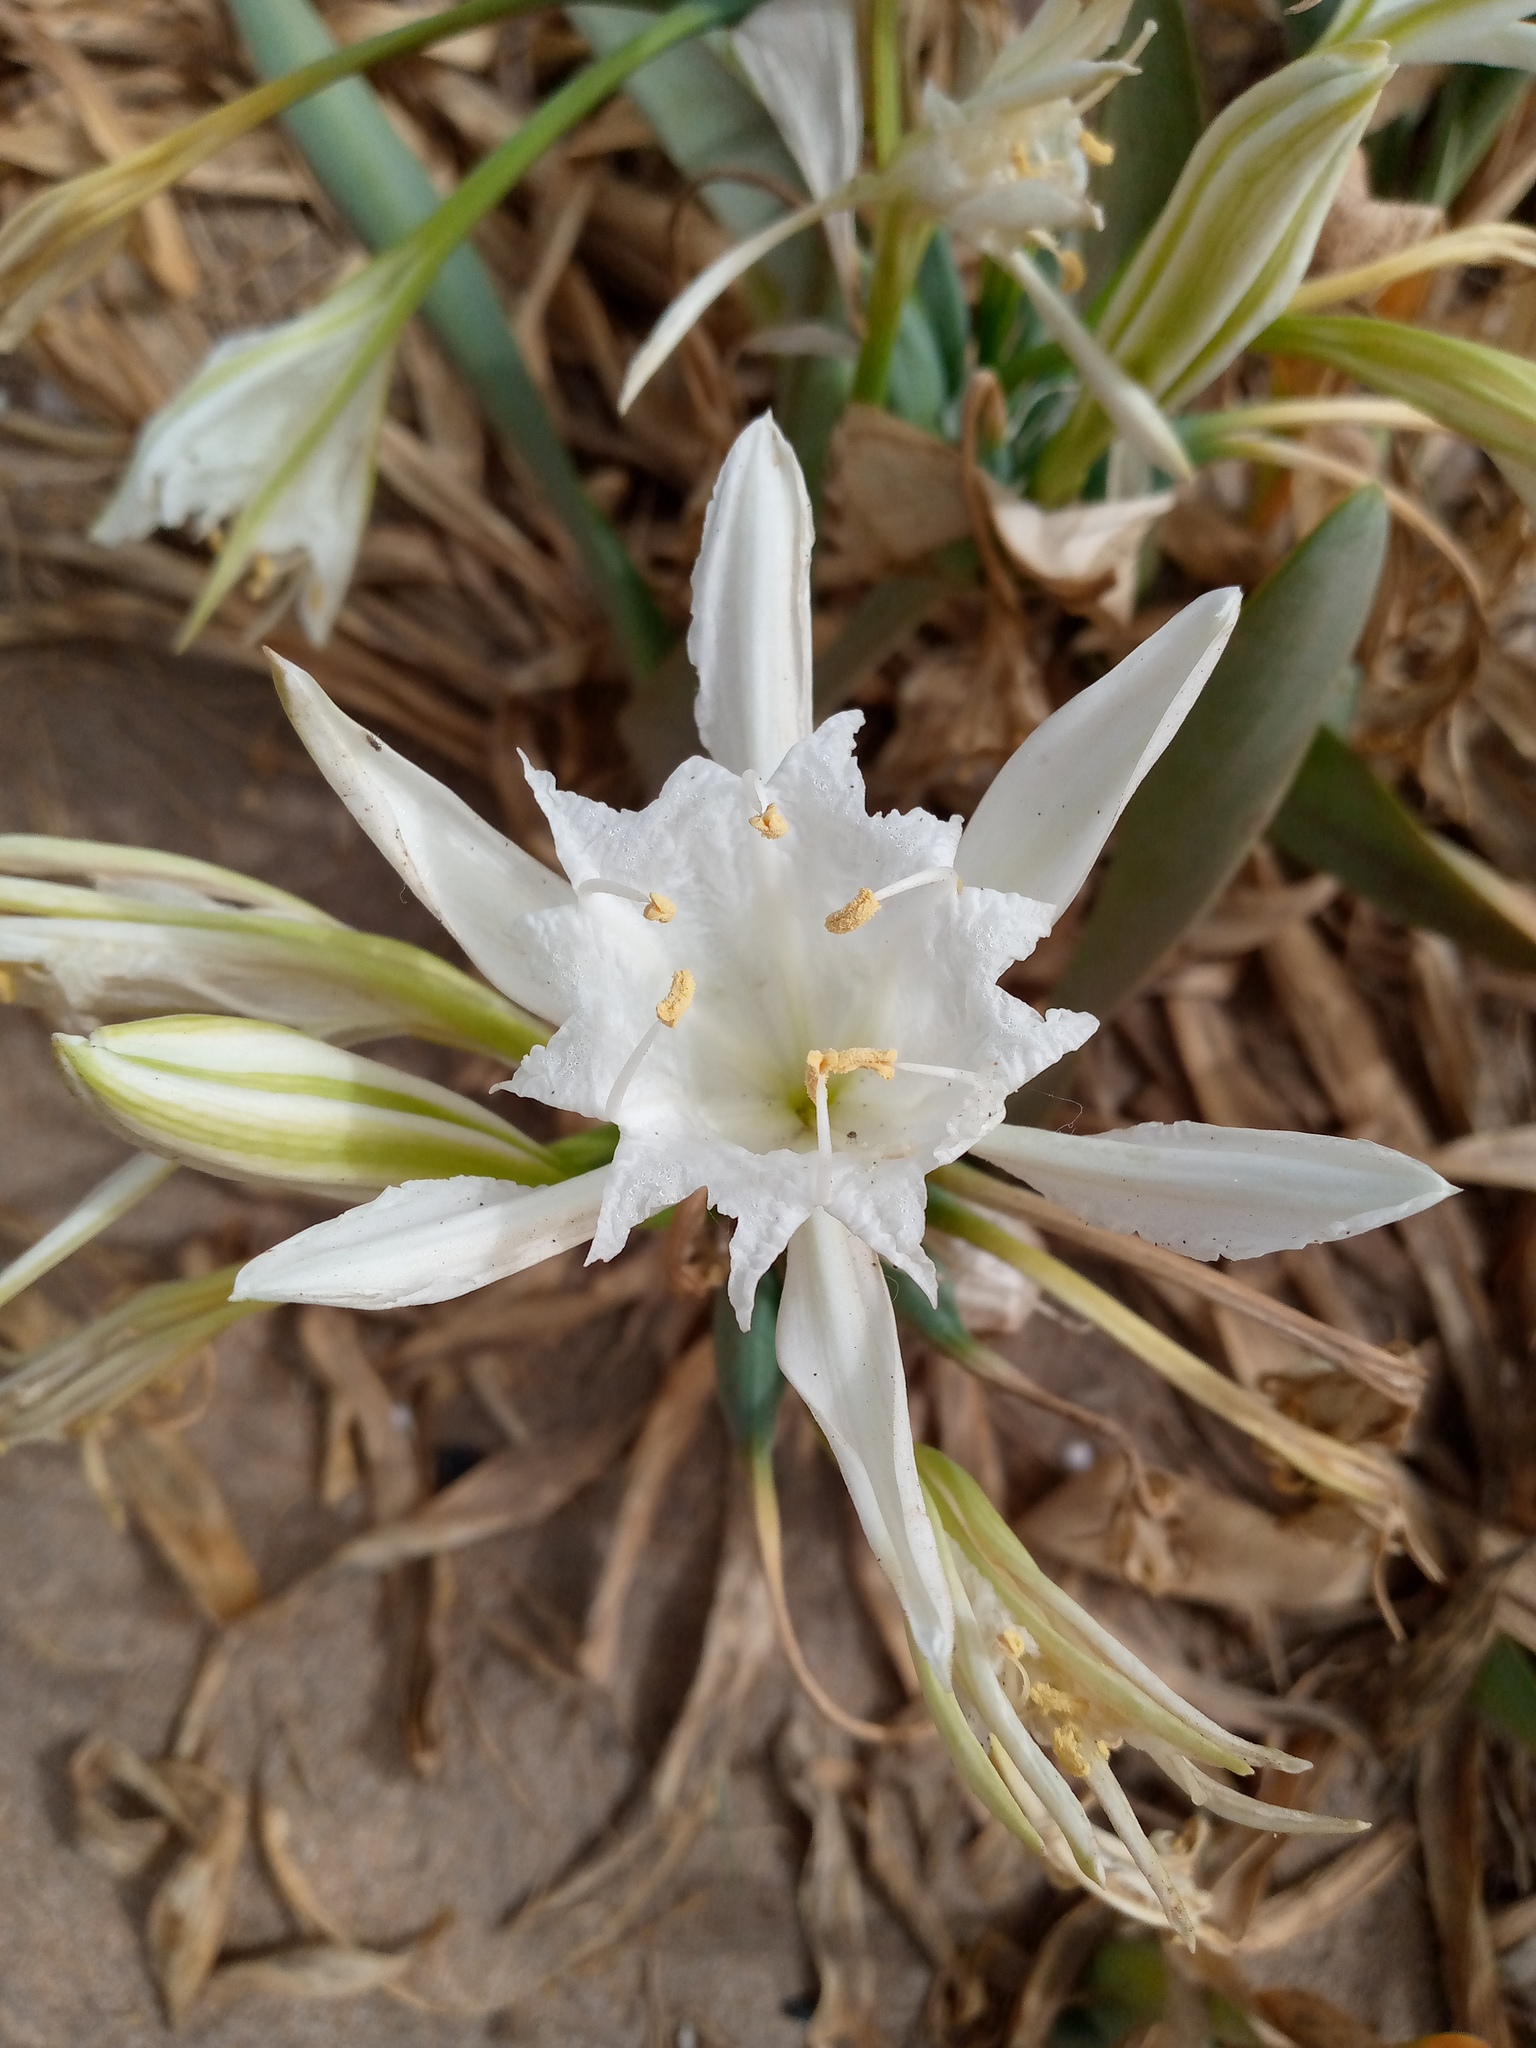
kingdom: Plantae
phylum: Tracheophyta
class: Liliopsida
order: Asparagales
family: Amaryllidaceae
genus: Pancratium
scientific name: Pancratium maritimum
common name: Sea-daffodil
